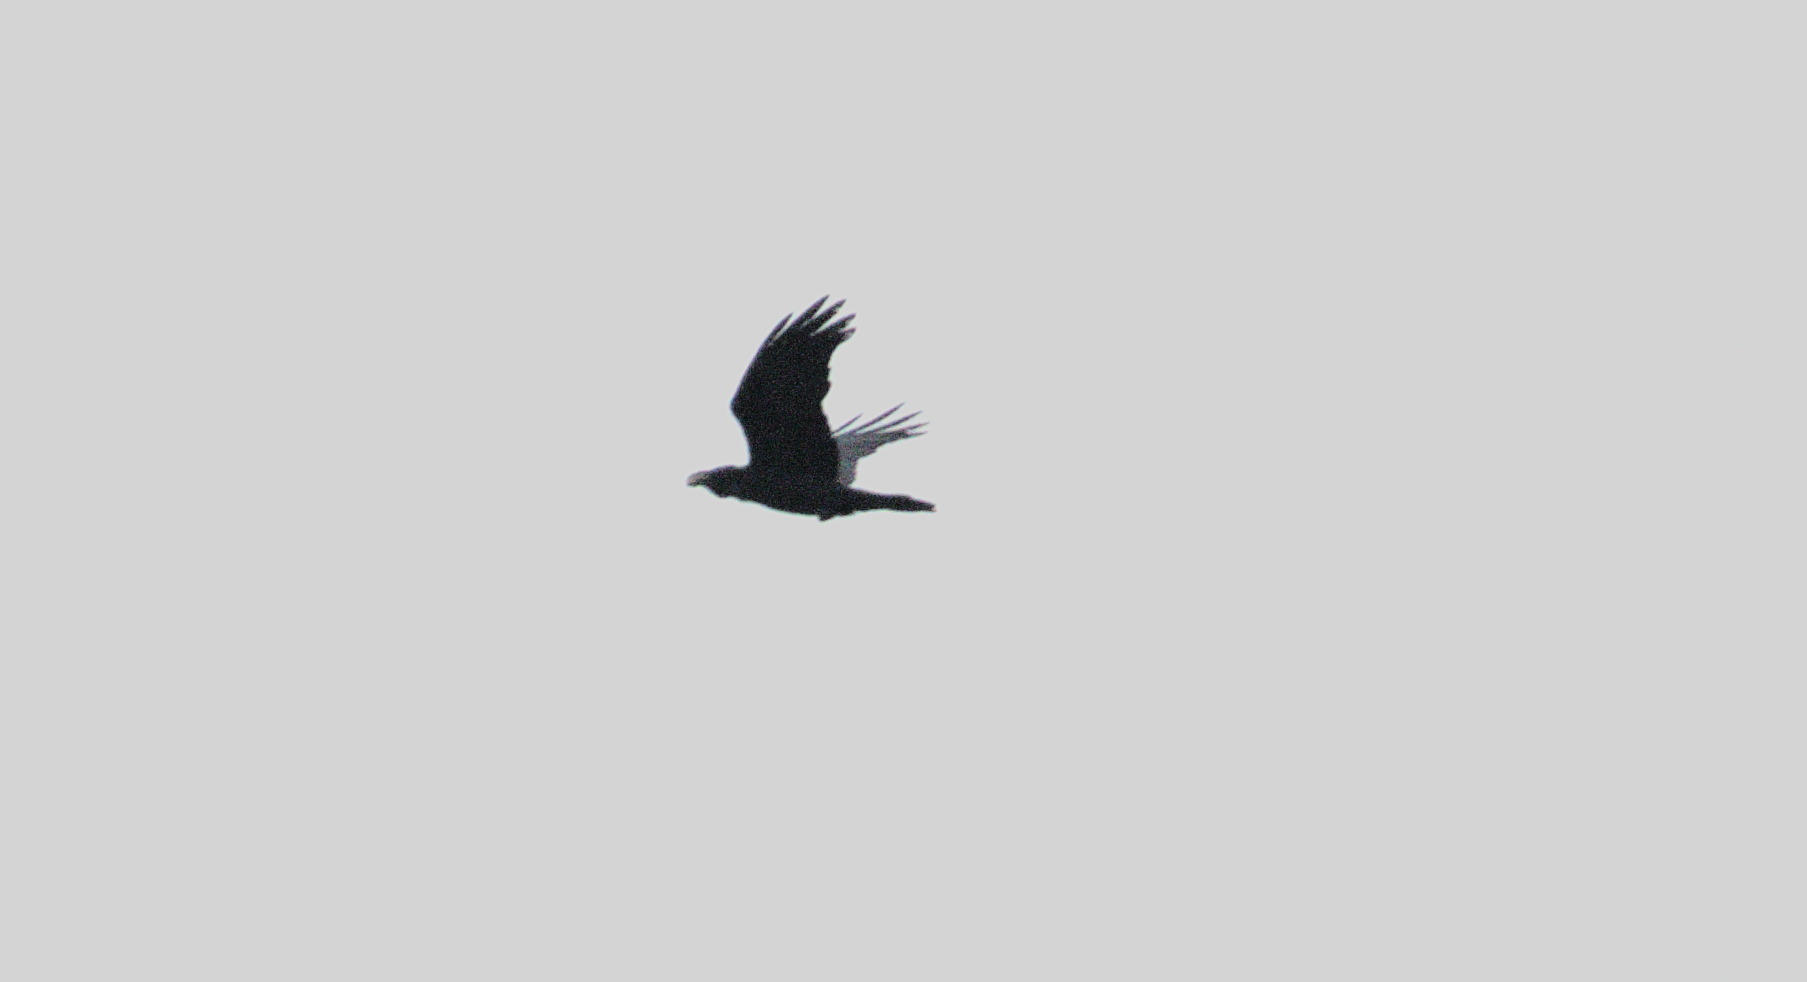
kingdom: Animalia
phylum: Chordata
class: Aves
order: Passeriformes
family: Corvidae
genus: Corvus
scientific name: Corvus corax
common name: Common raven
